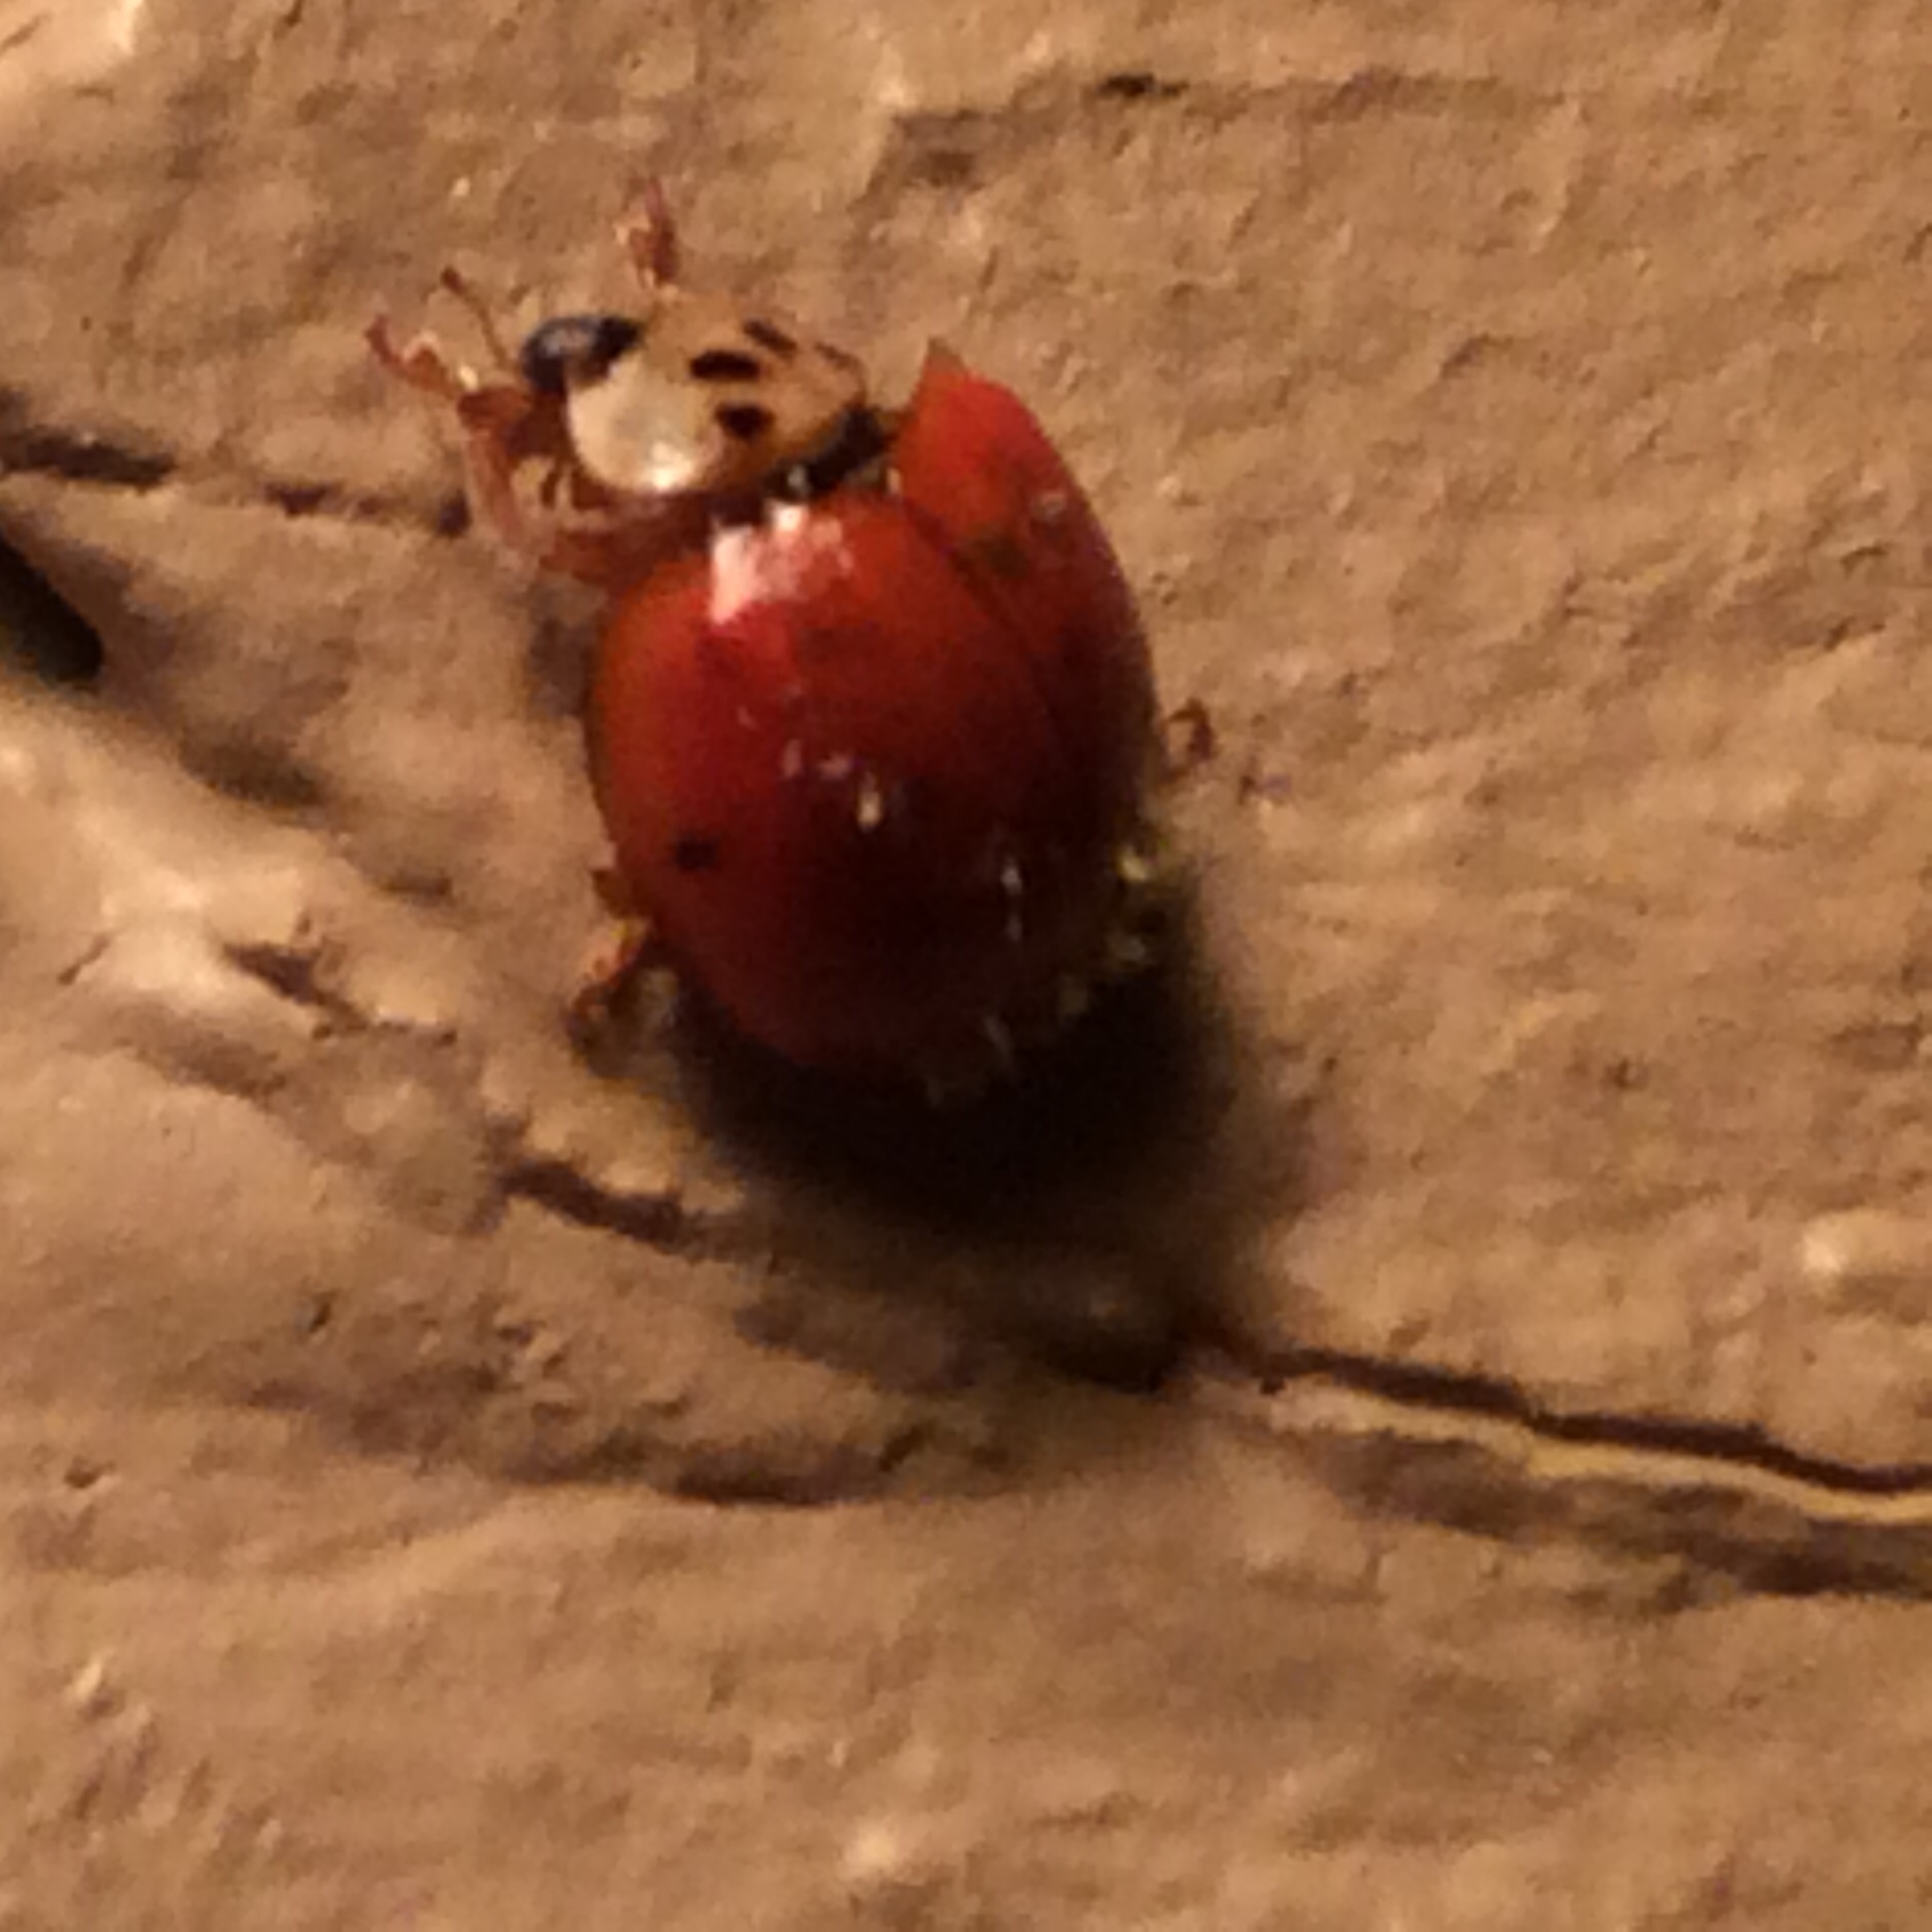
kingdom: Animalia
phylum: Arthropoda
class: Insecta
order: Coleoptera
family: Coccinellidae
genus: Harmonia
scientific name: Harmonia axyridis
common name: Harlequin ladybird
